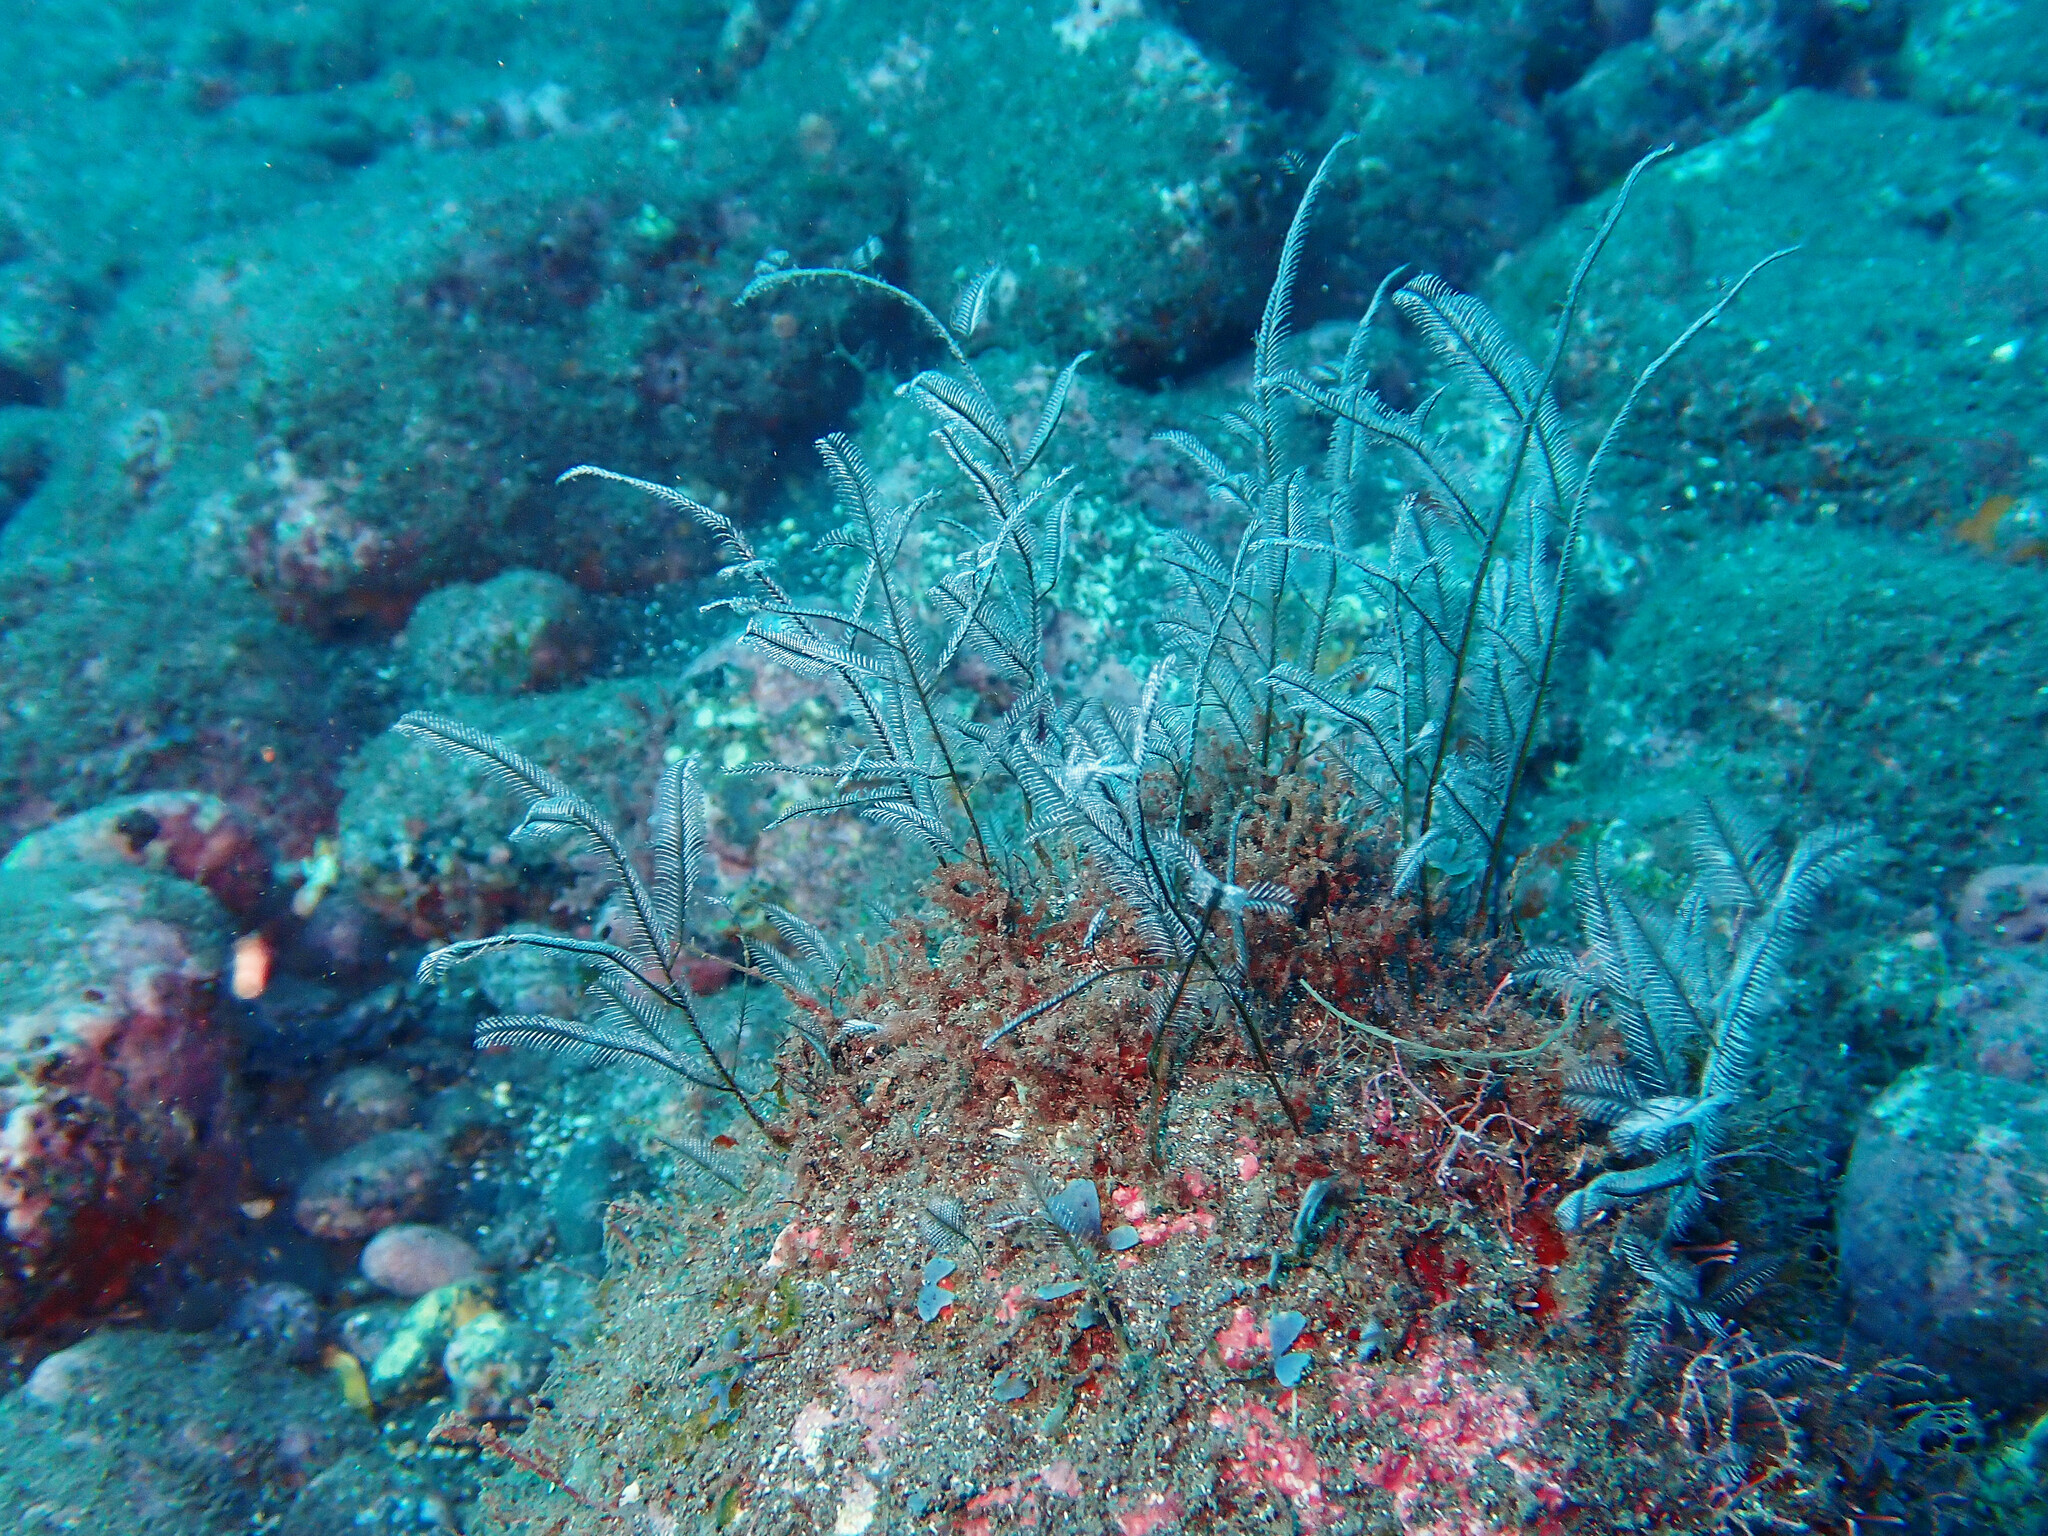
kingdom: Animalia
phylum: Cnidaria
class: Hydrozoa
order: Leptothecata
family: Aglaopheniidae
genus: Macrorhynchia
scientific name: Macrorhynchia philippina
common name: Stinging hydroid
